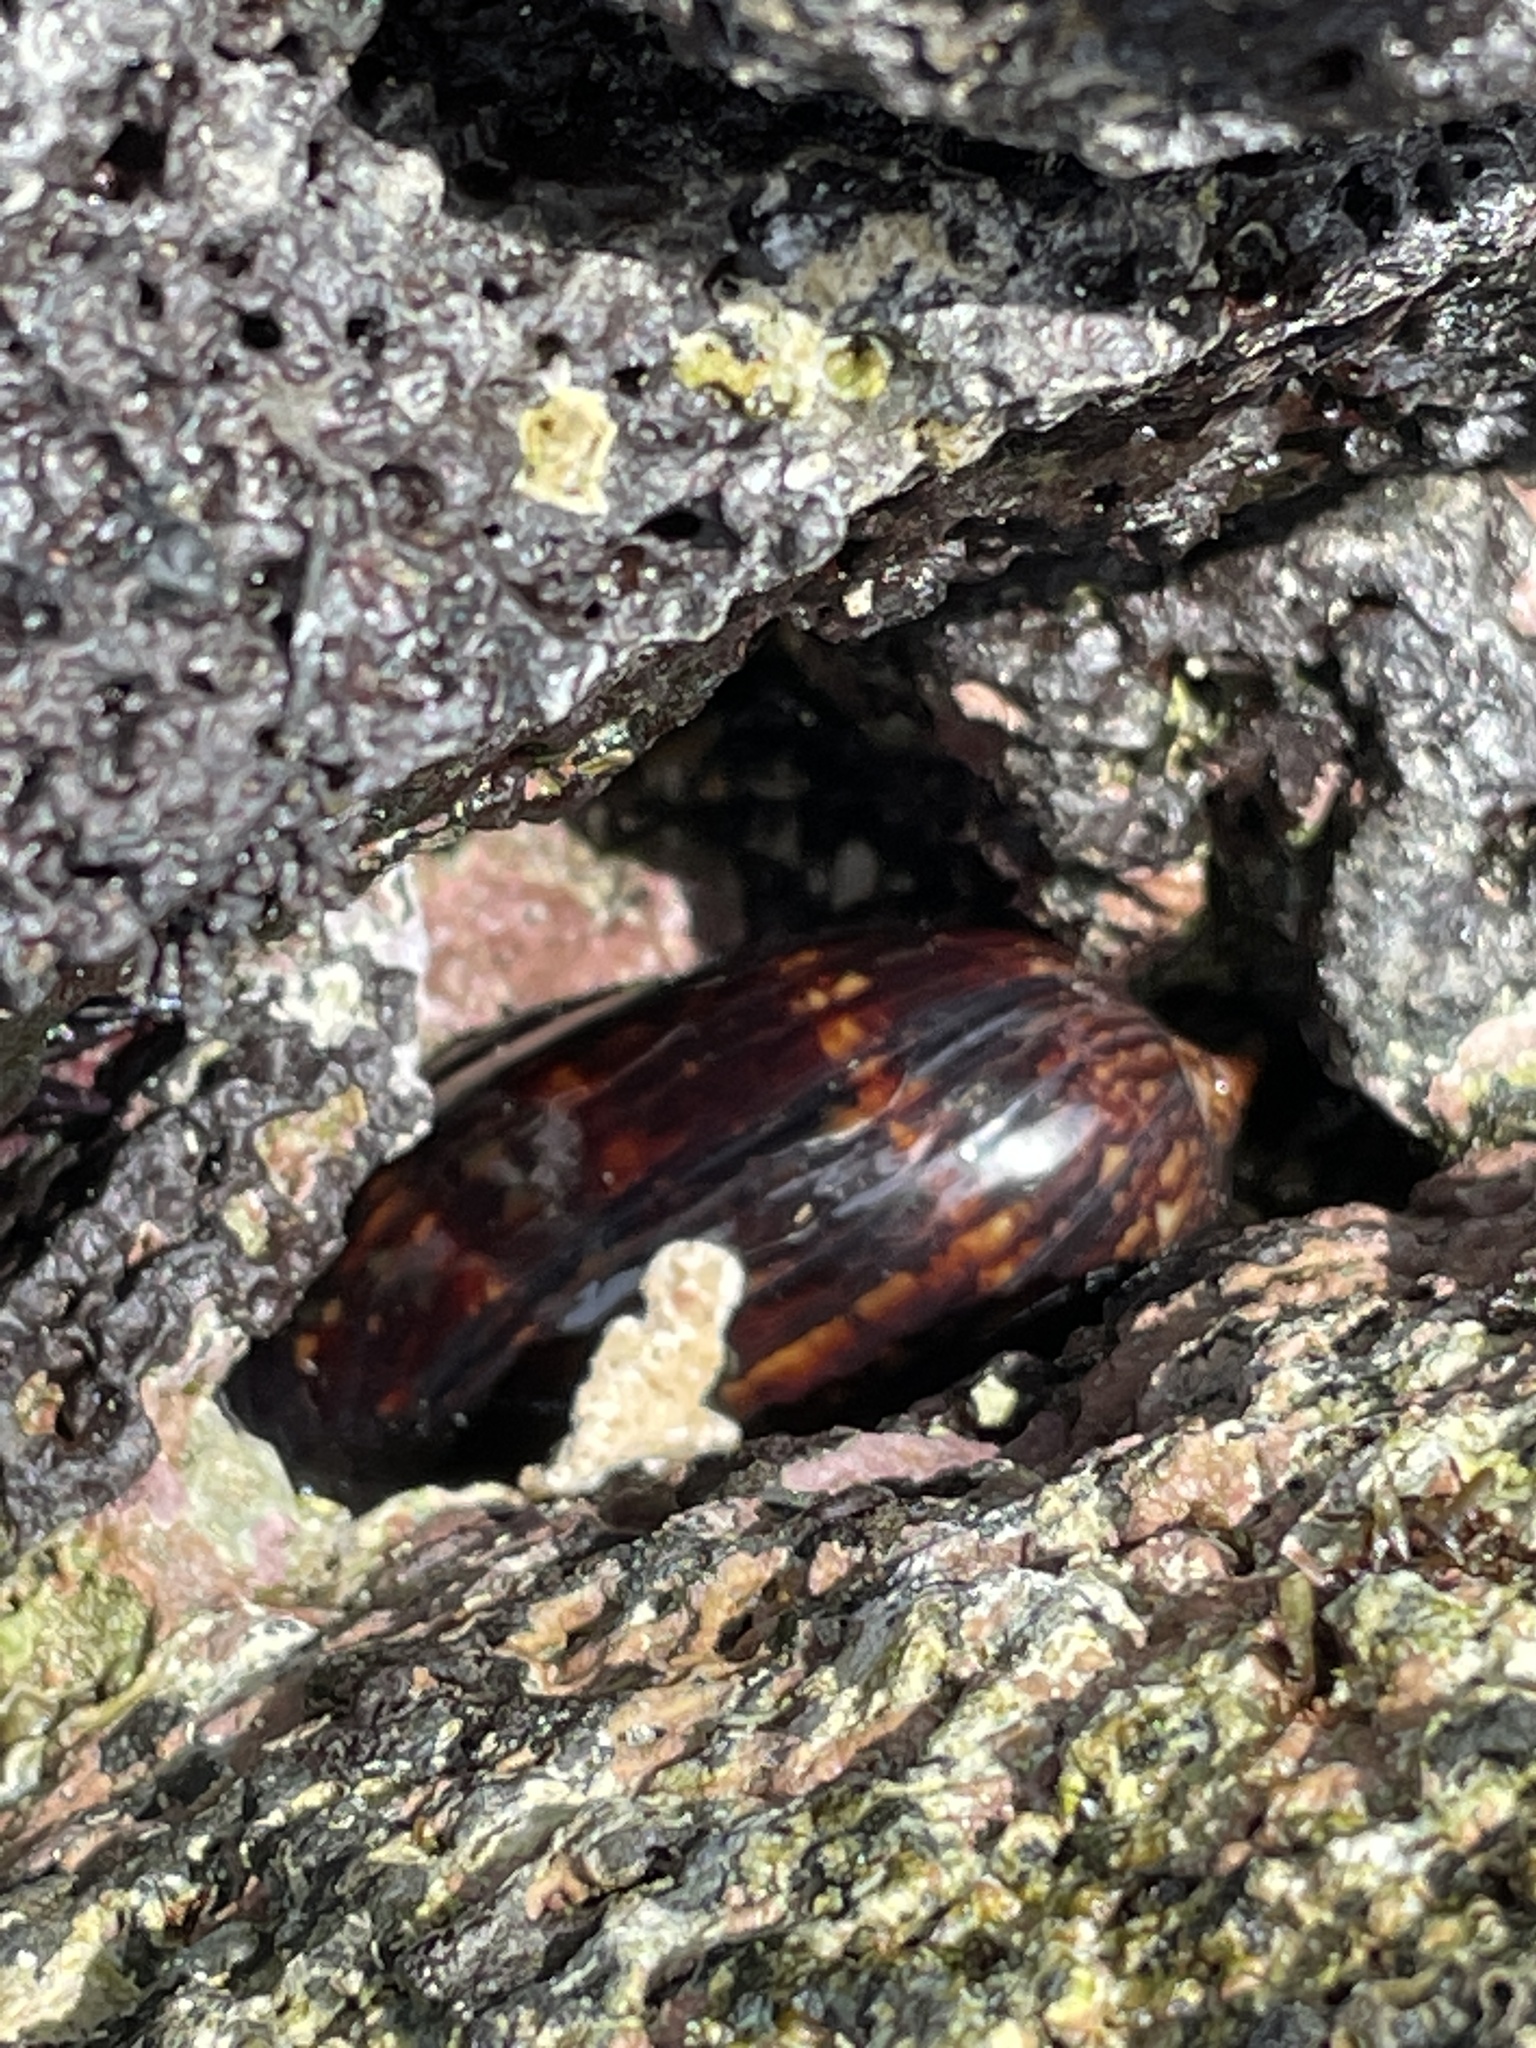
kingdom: Animalia
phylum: Mollusca
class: Gastropoda
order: Littorinimorpha
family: Cypraeidae
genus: Mauritia
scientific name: Mauritia mauritiana
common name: Hump-backed cowrie
